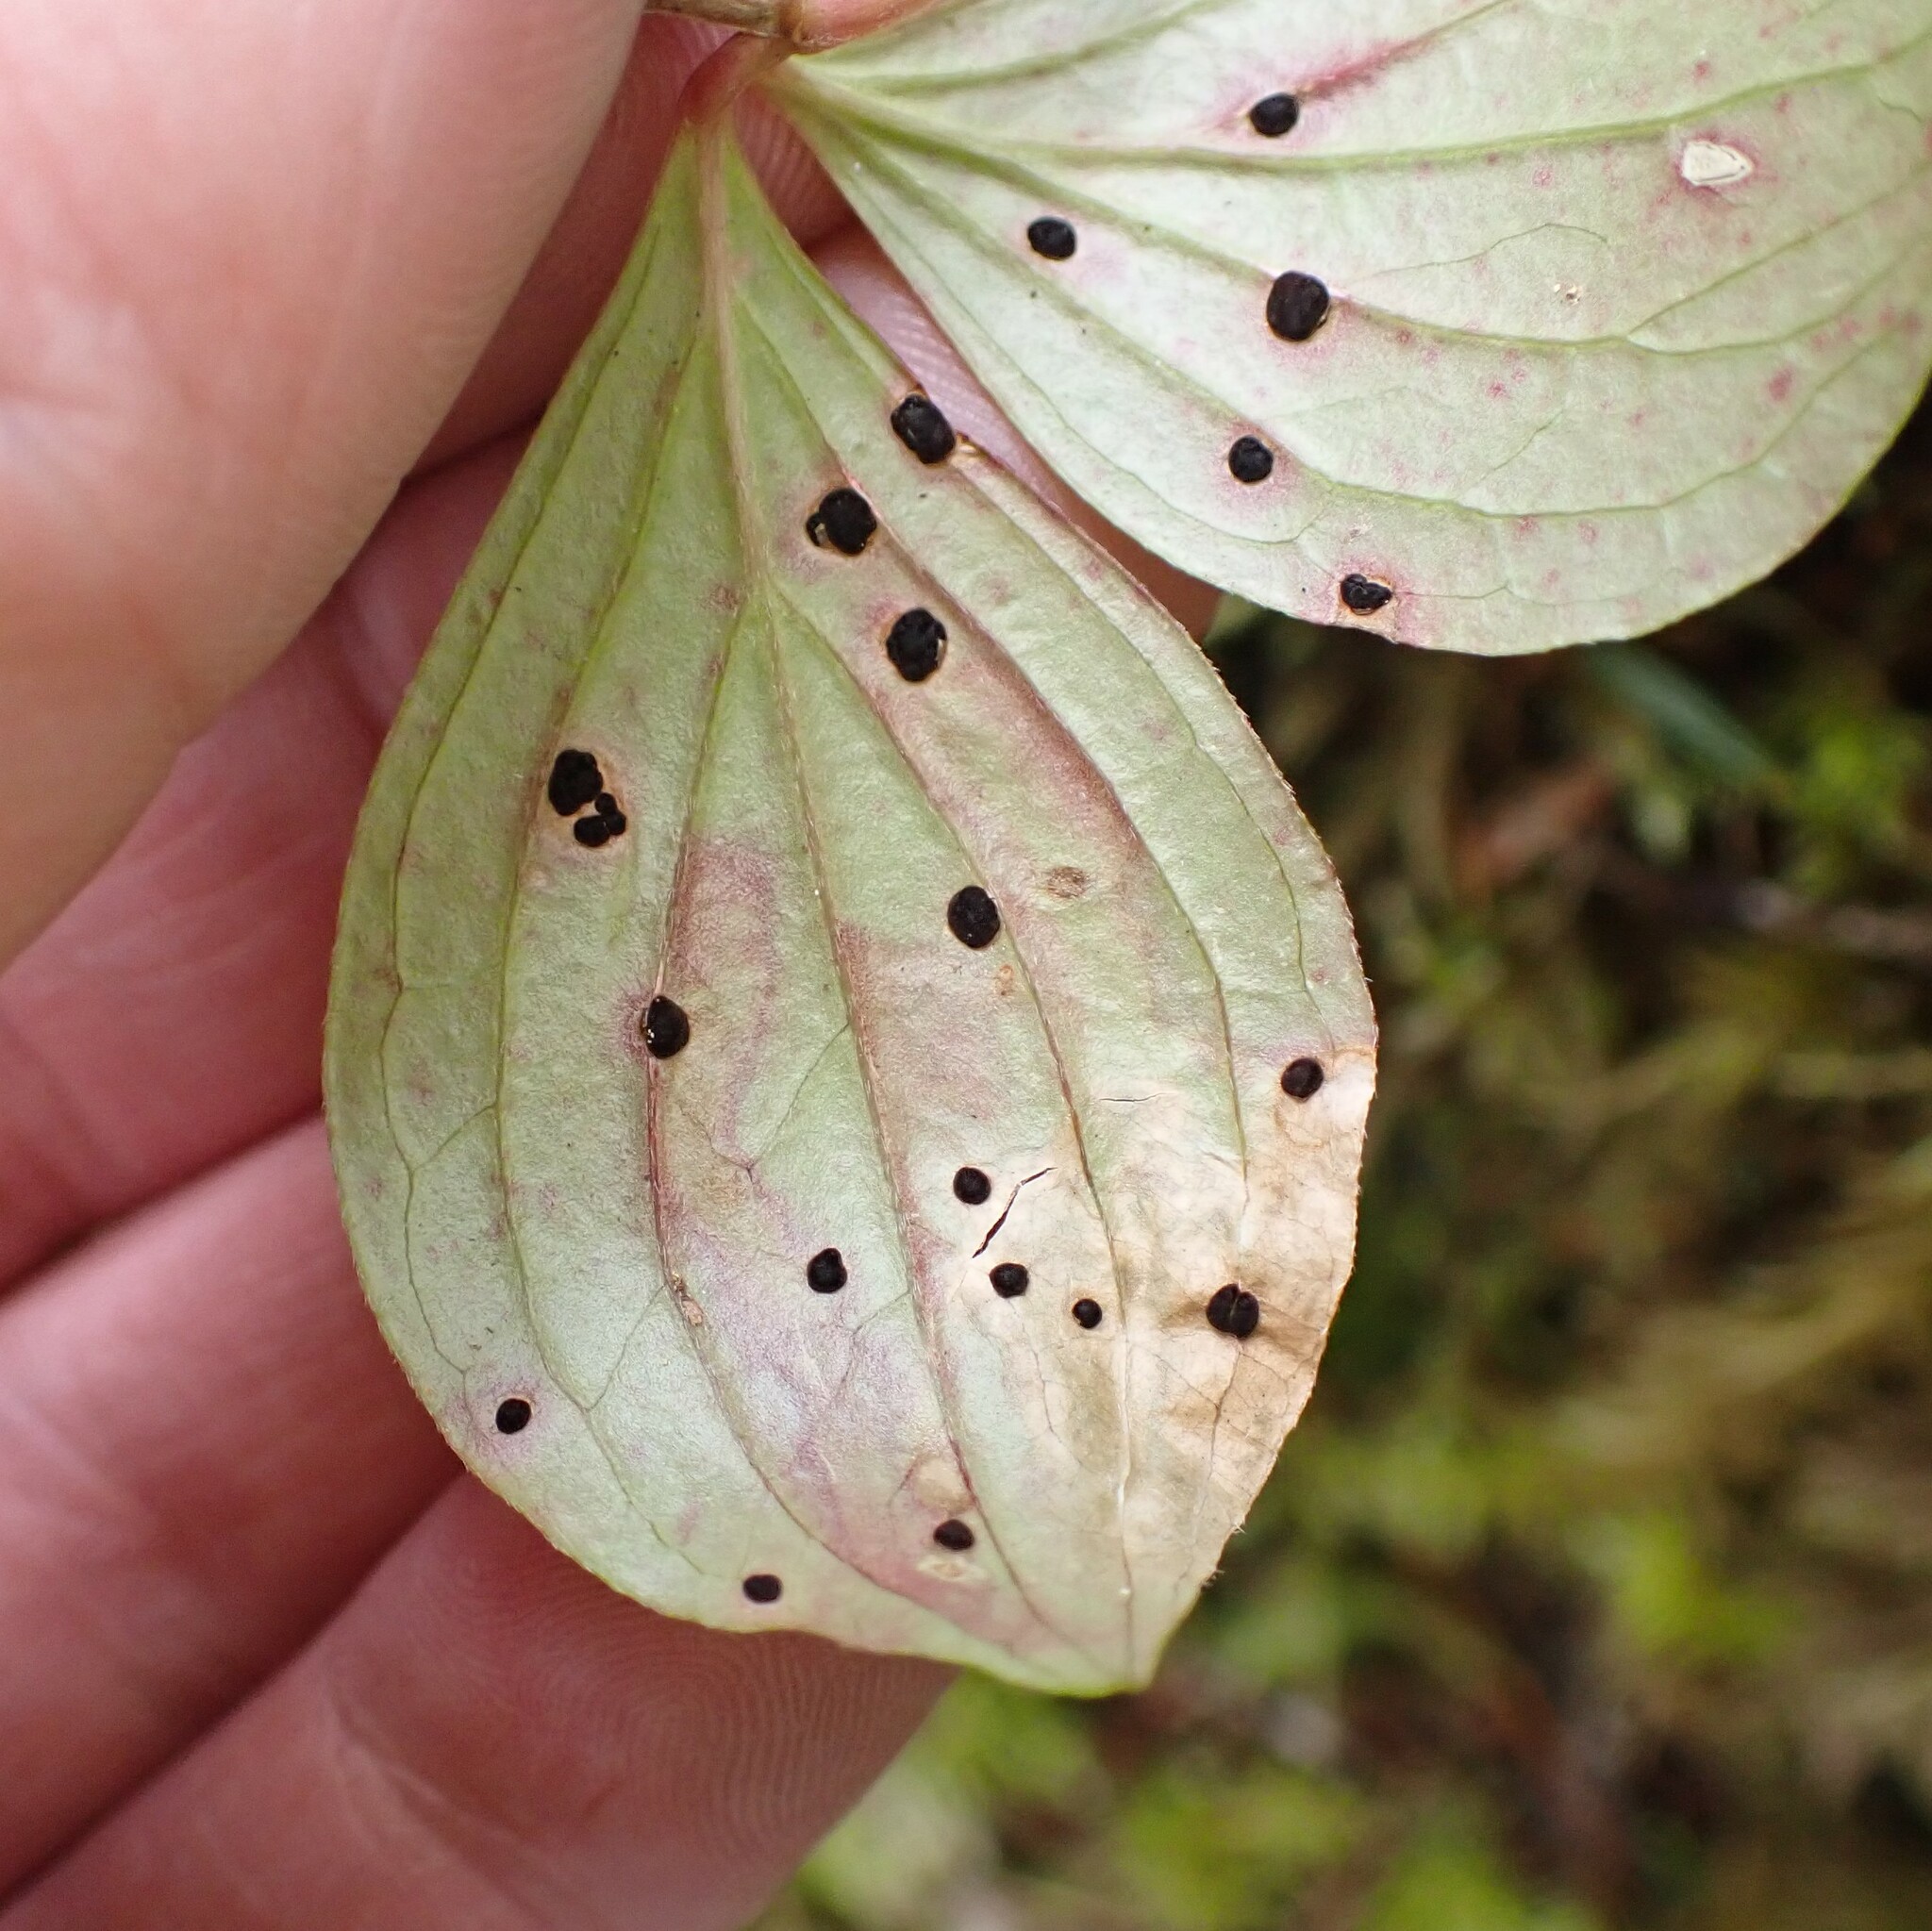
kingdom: Animalia
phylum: Arthropoda
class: Insecta
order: Diptera
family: Agromyzidae
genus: Phytomyza
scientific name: Phytomyza agromyzina
